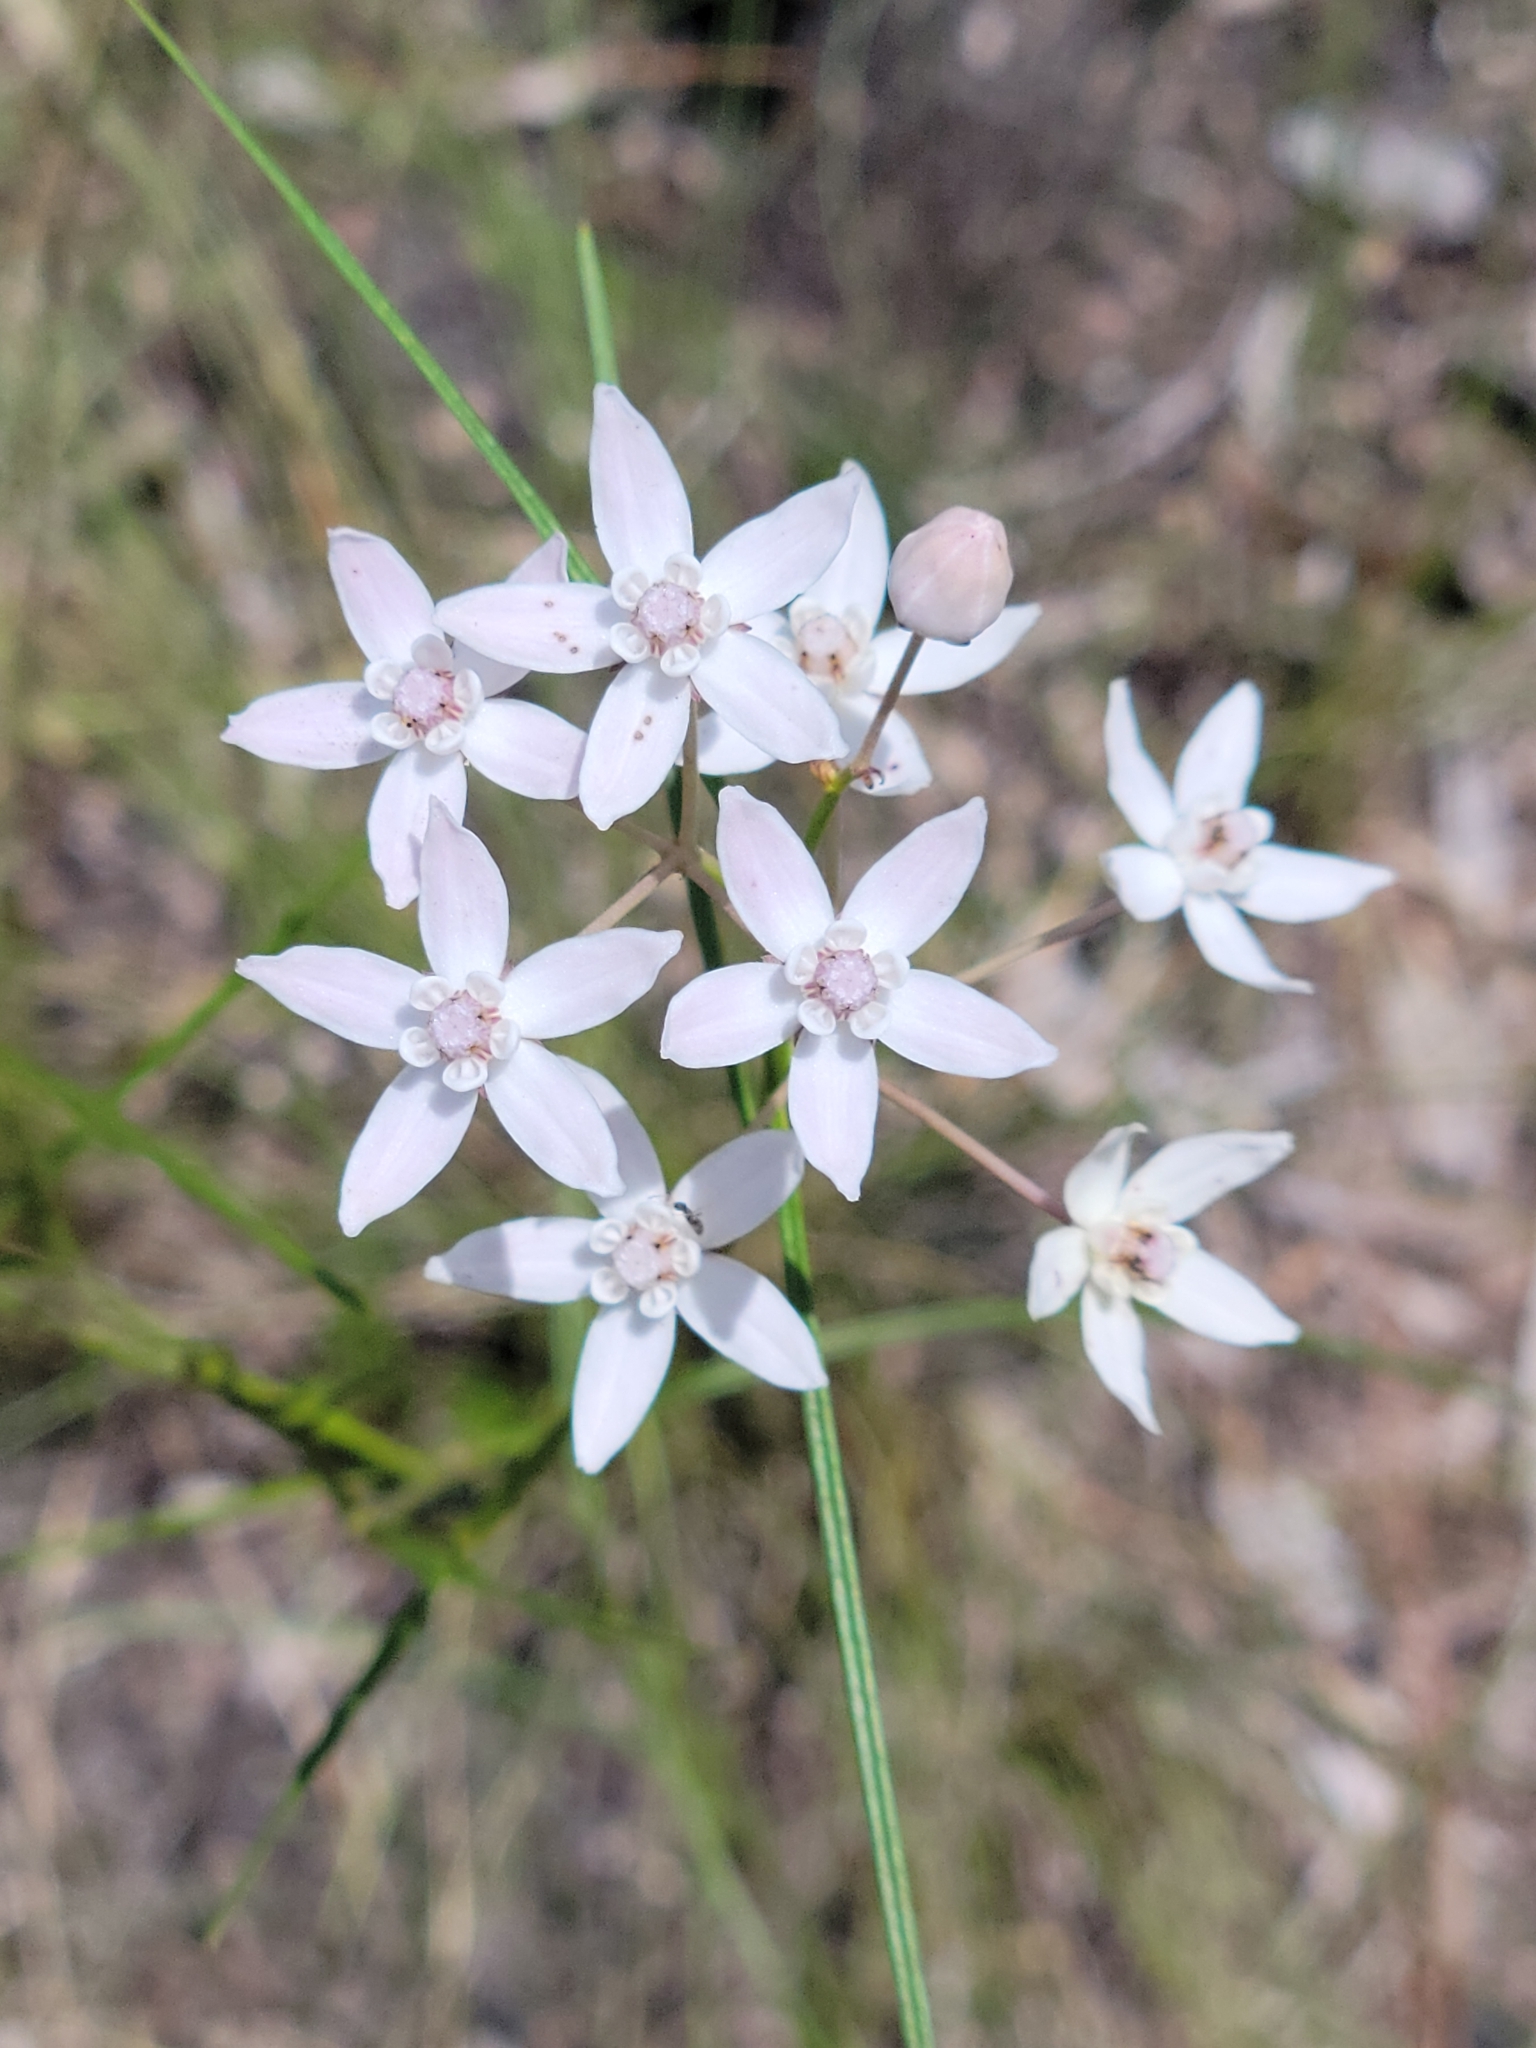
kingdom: Plantae
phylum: Tracheophyta
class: Magnoliopsida
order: Gentianales
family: Apocynaceae
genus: Asclepias
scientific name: Asclepias feayi
